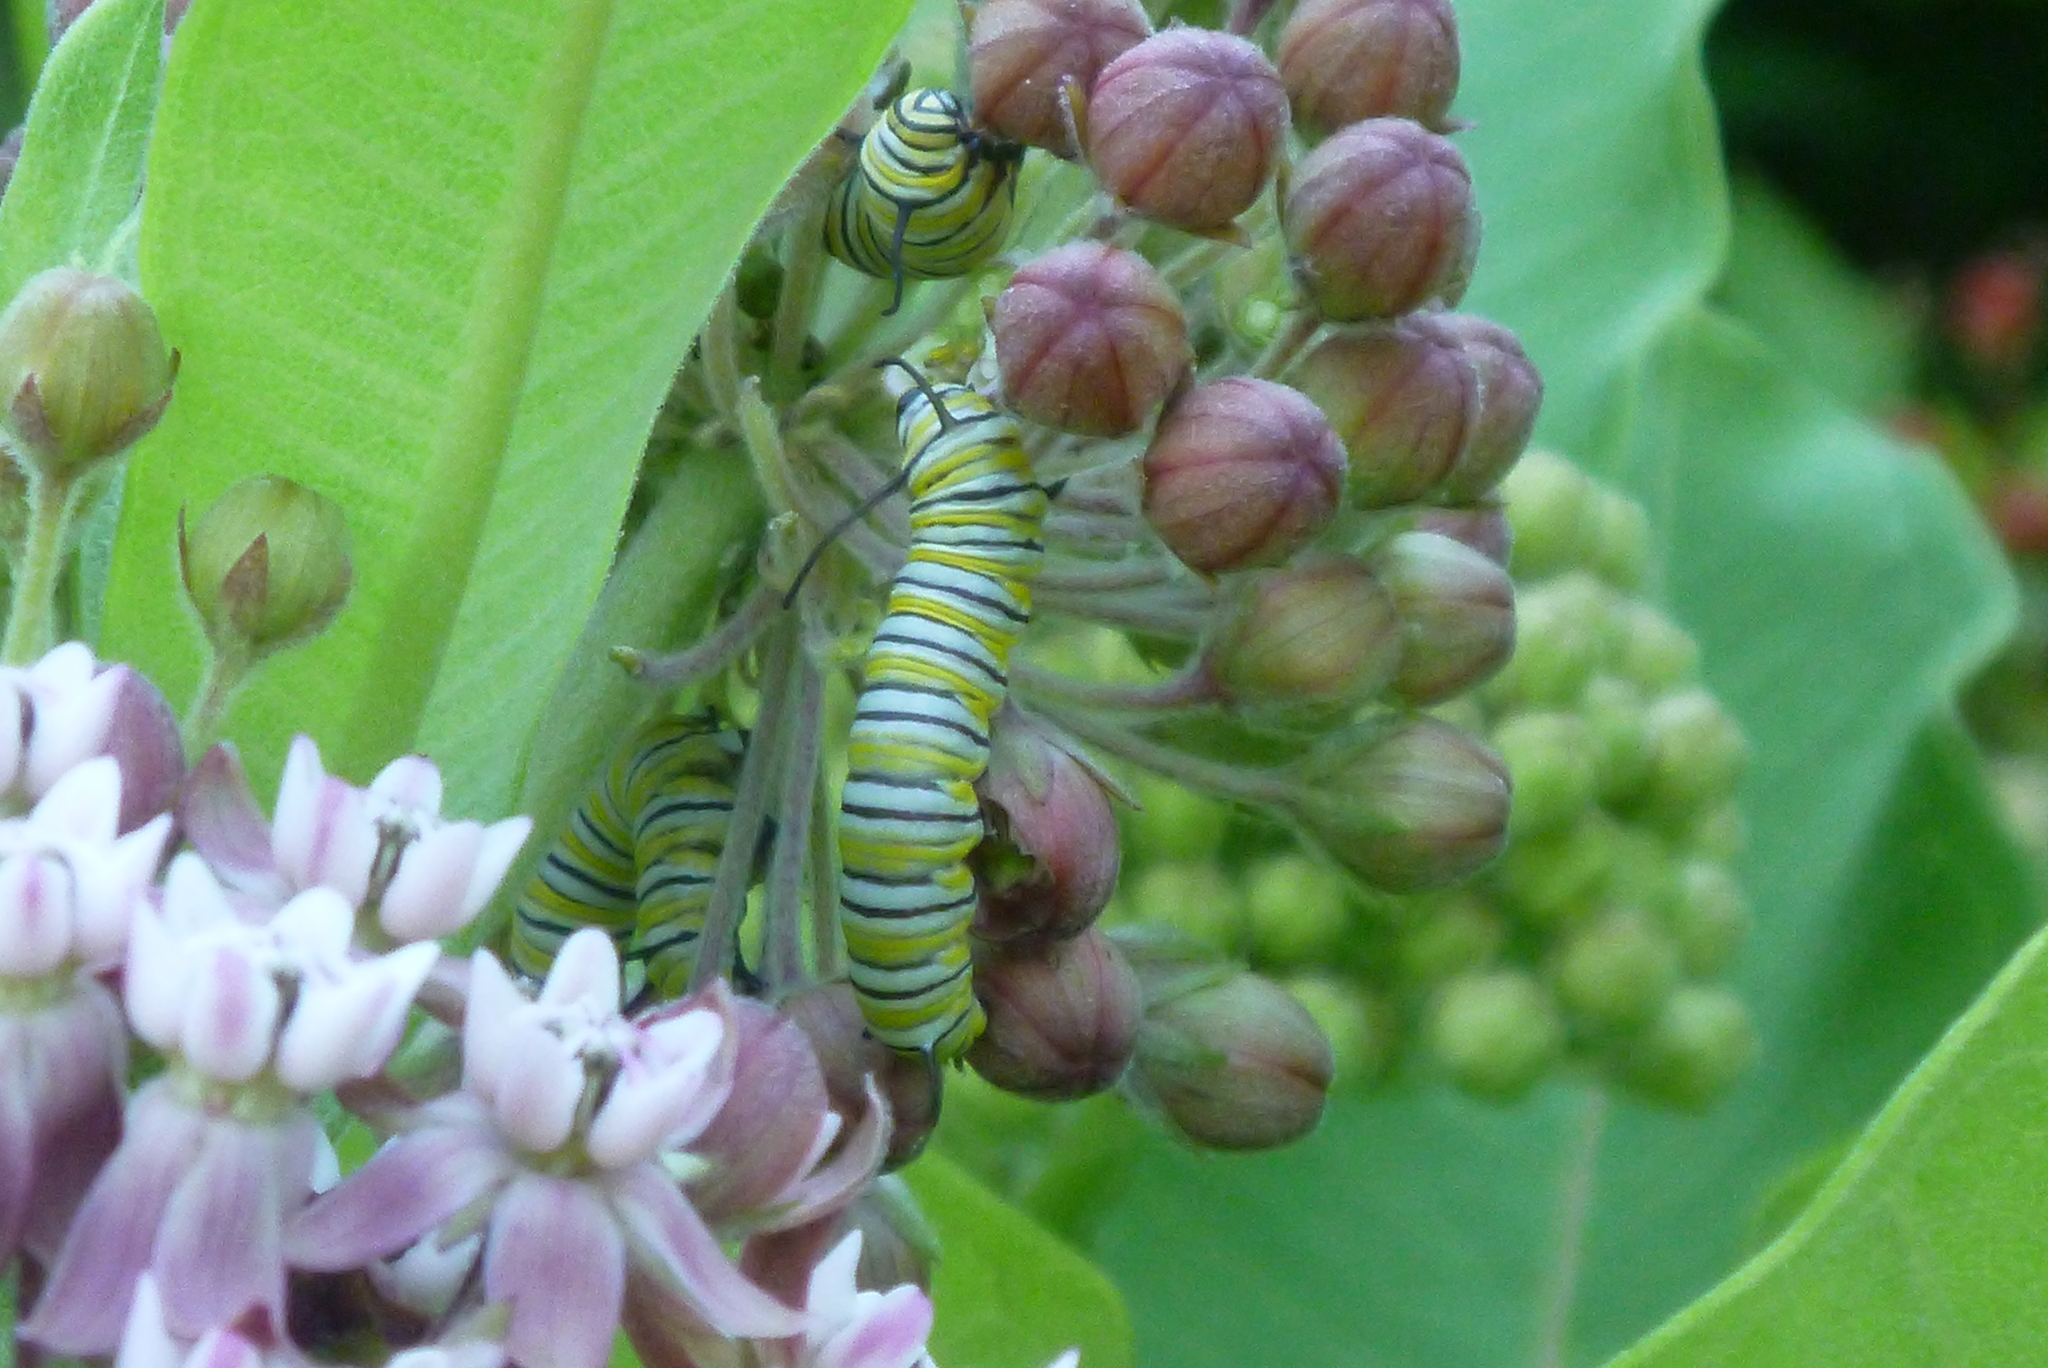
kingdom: Animalia
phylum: Arthropoda
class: Insecta
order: Lepidoptera
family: Nymphalidae
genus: Danaus
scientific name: Danaus plexippus
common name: Monarch
